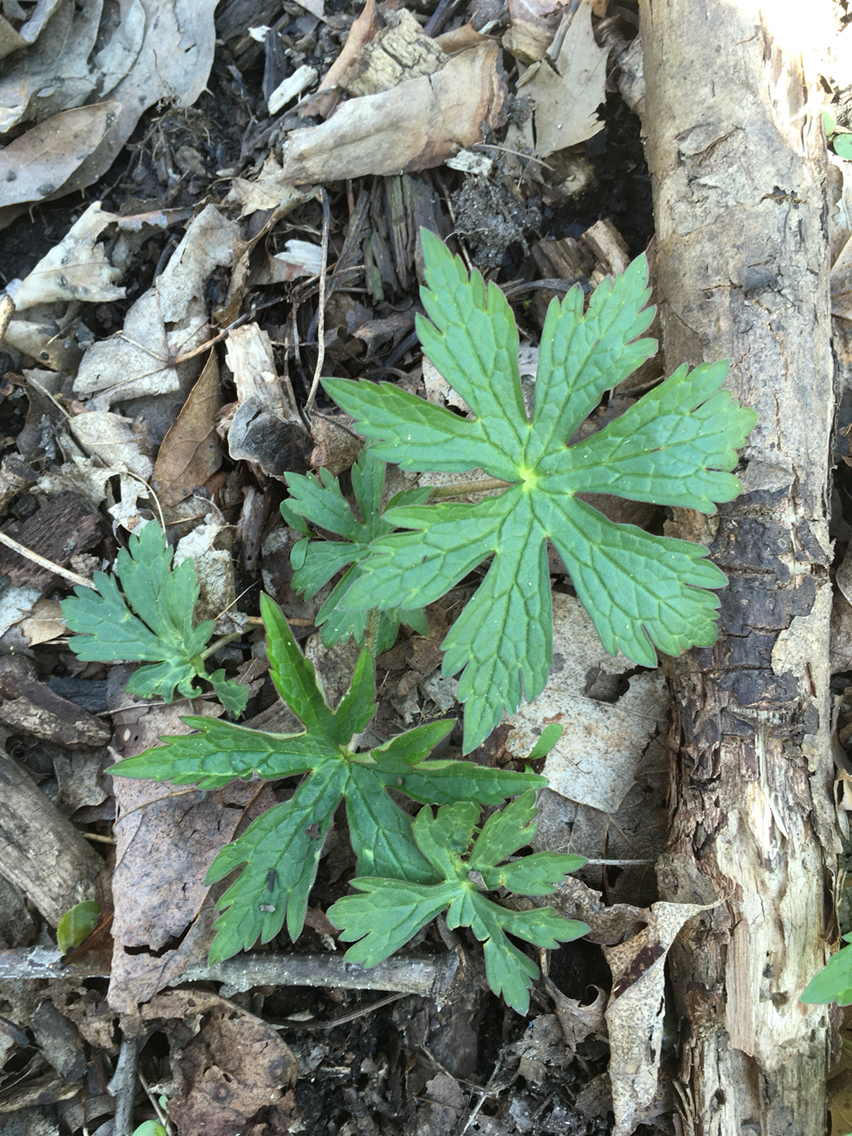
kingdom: Plantae
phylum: Tracheophyta
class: Magnoliopsida
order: Geraniales
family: Geraniaceae
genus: Geranium
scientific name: Geranium maculatum
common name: Spotted geranium
